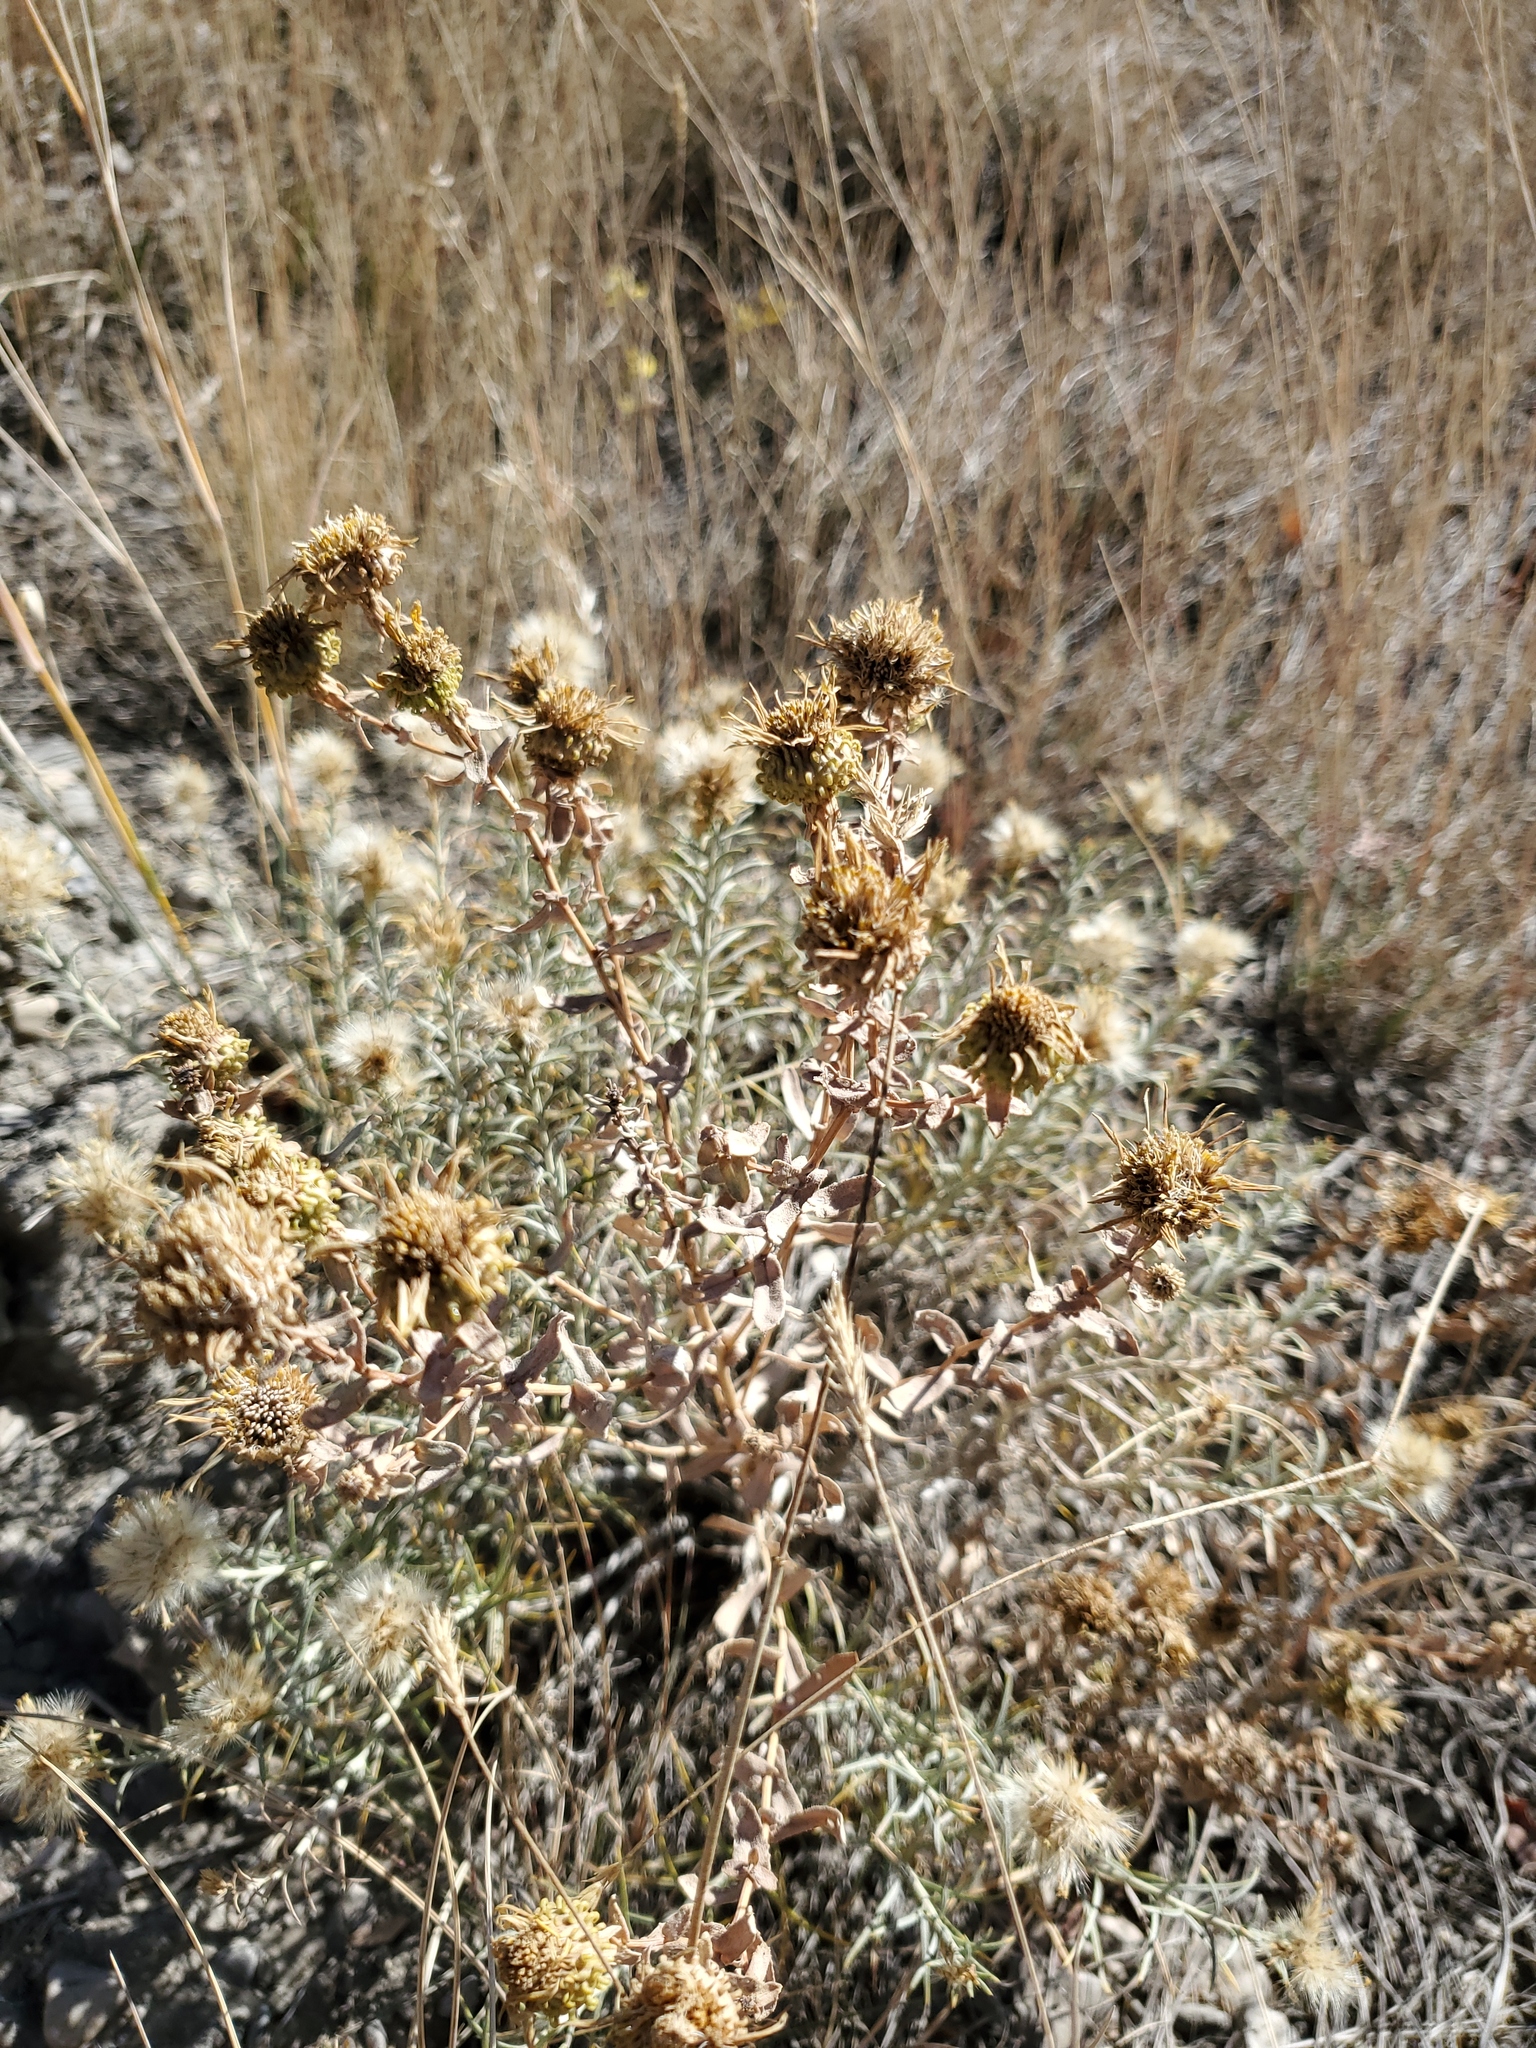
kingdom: Plantae
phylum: Tracheophyta
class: Magnoliopsida
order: Asterales
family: Asteraceae
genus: Grindelia
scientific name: Grindelia squarrosa
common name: Curly-cup gumweed
